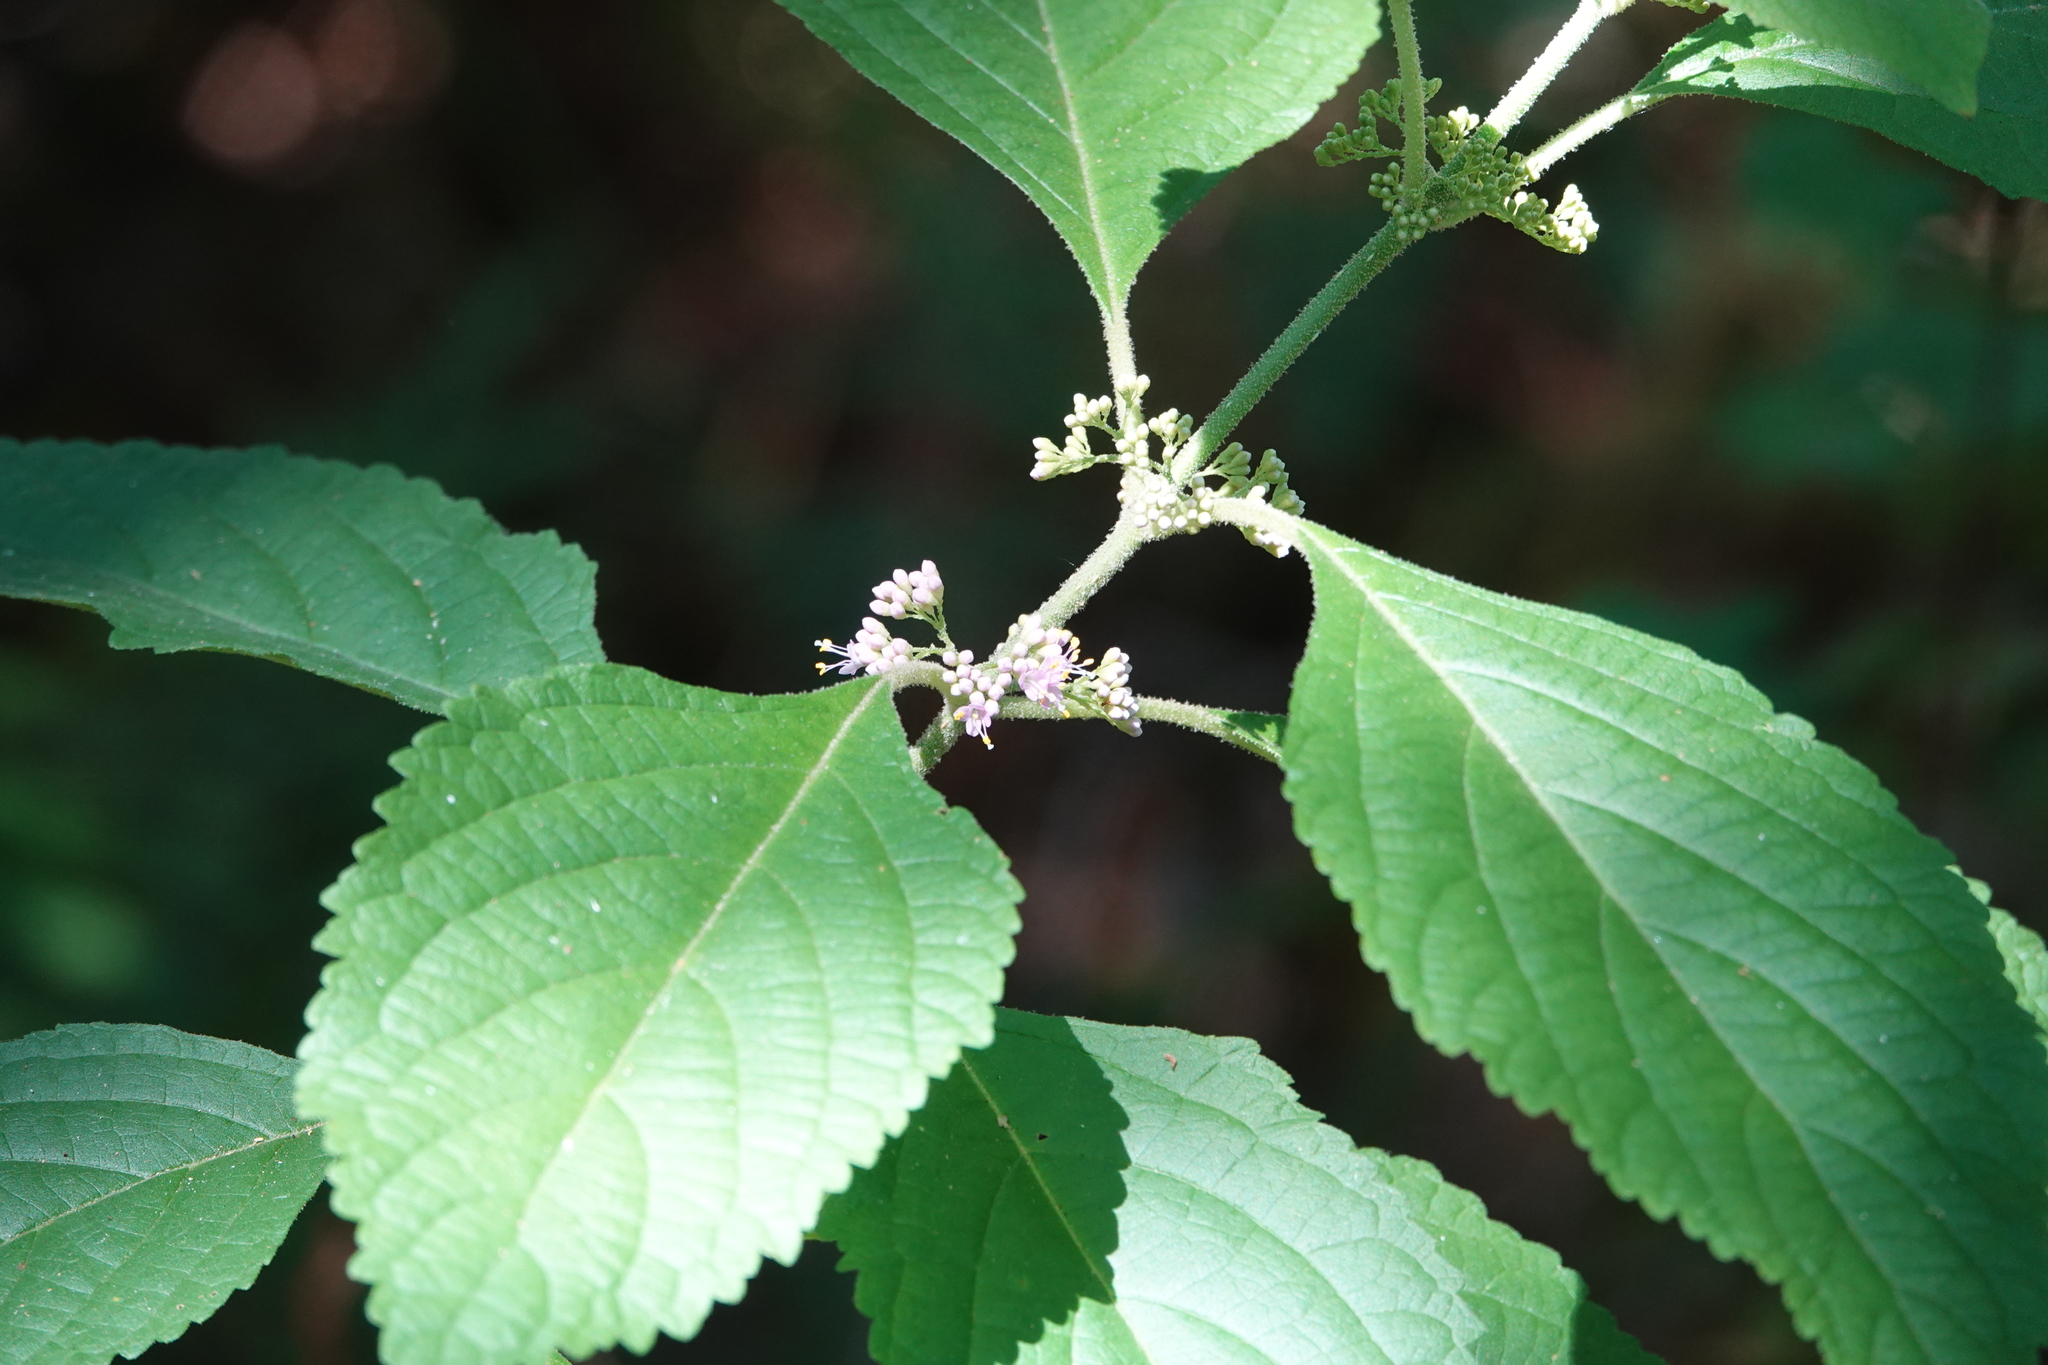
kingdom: Plantae
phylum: Tracheophyta
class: Magnoliopsida
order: Lamiales
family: Lamiaceae
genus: Callicarpa
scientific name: Callicarpa americana
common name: American beautyberry
